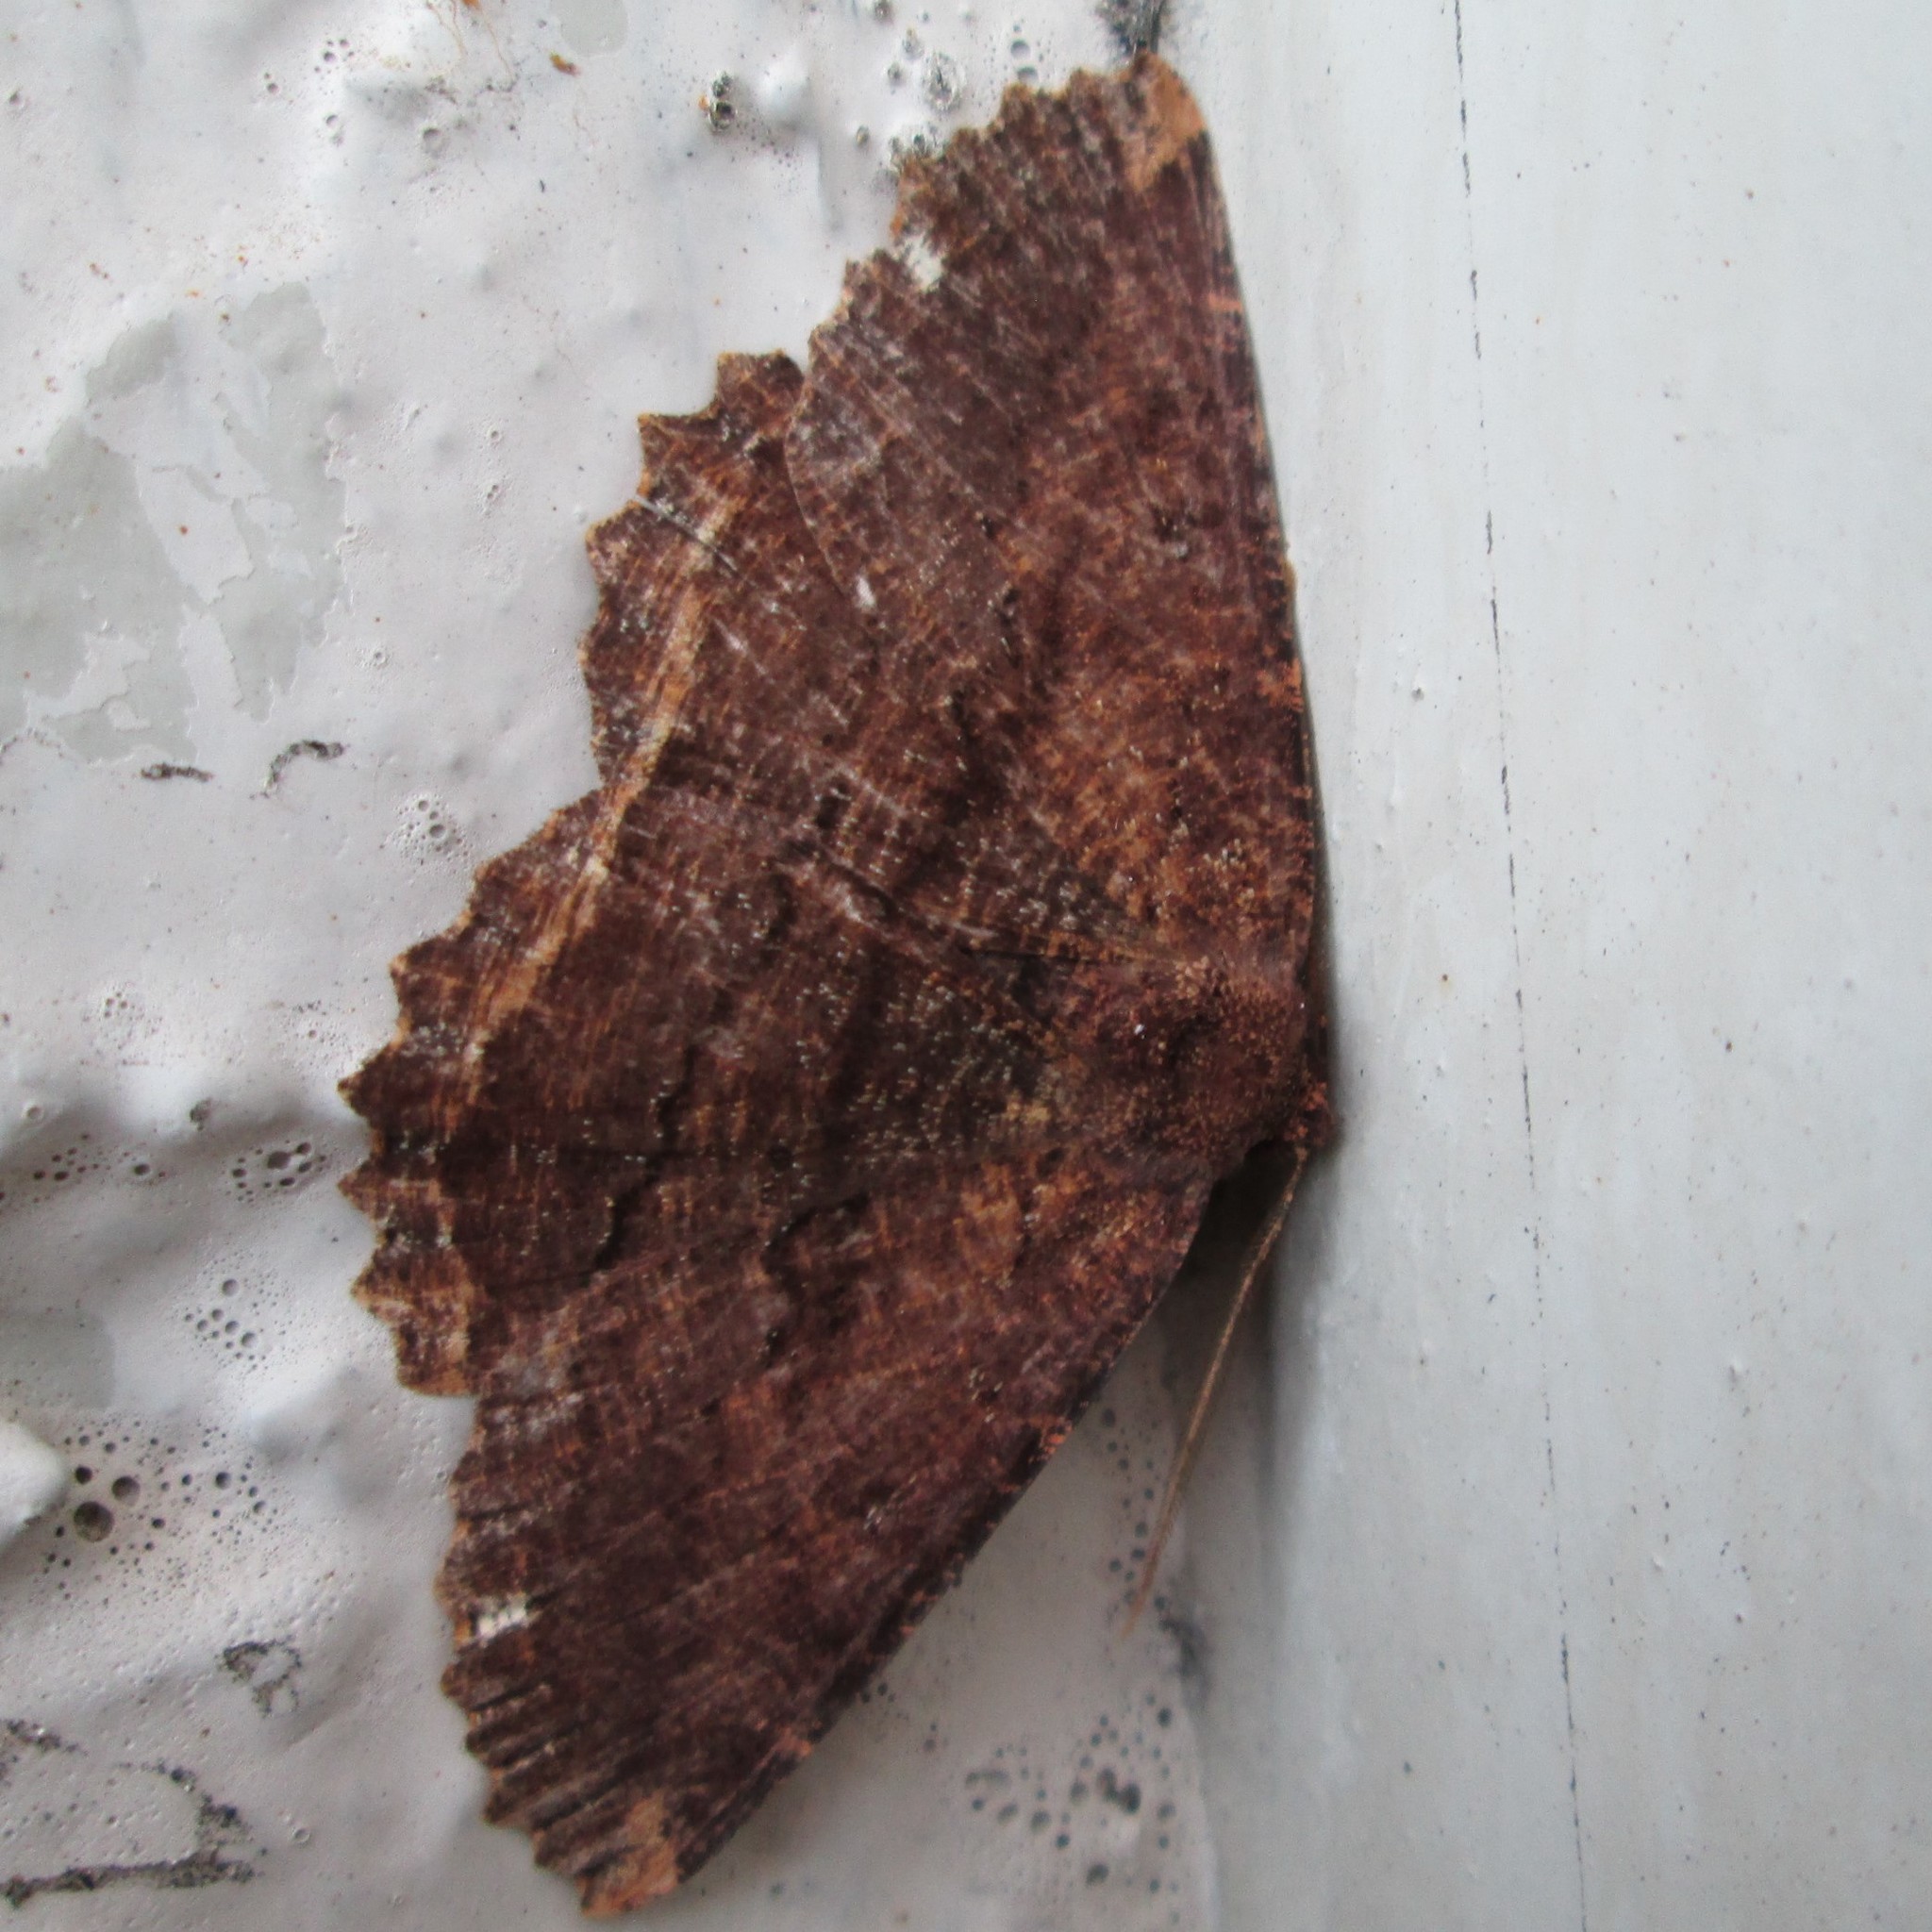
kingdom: Animalia
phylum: Arthropoda
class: Insecta
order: Lepidoptera
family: Geometridae
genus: Gellonia
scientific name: Gellonia dejectaria
